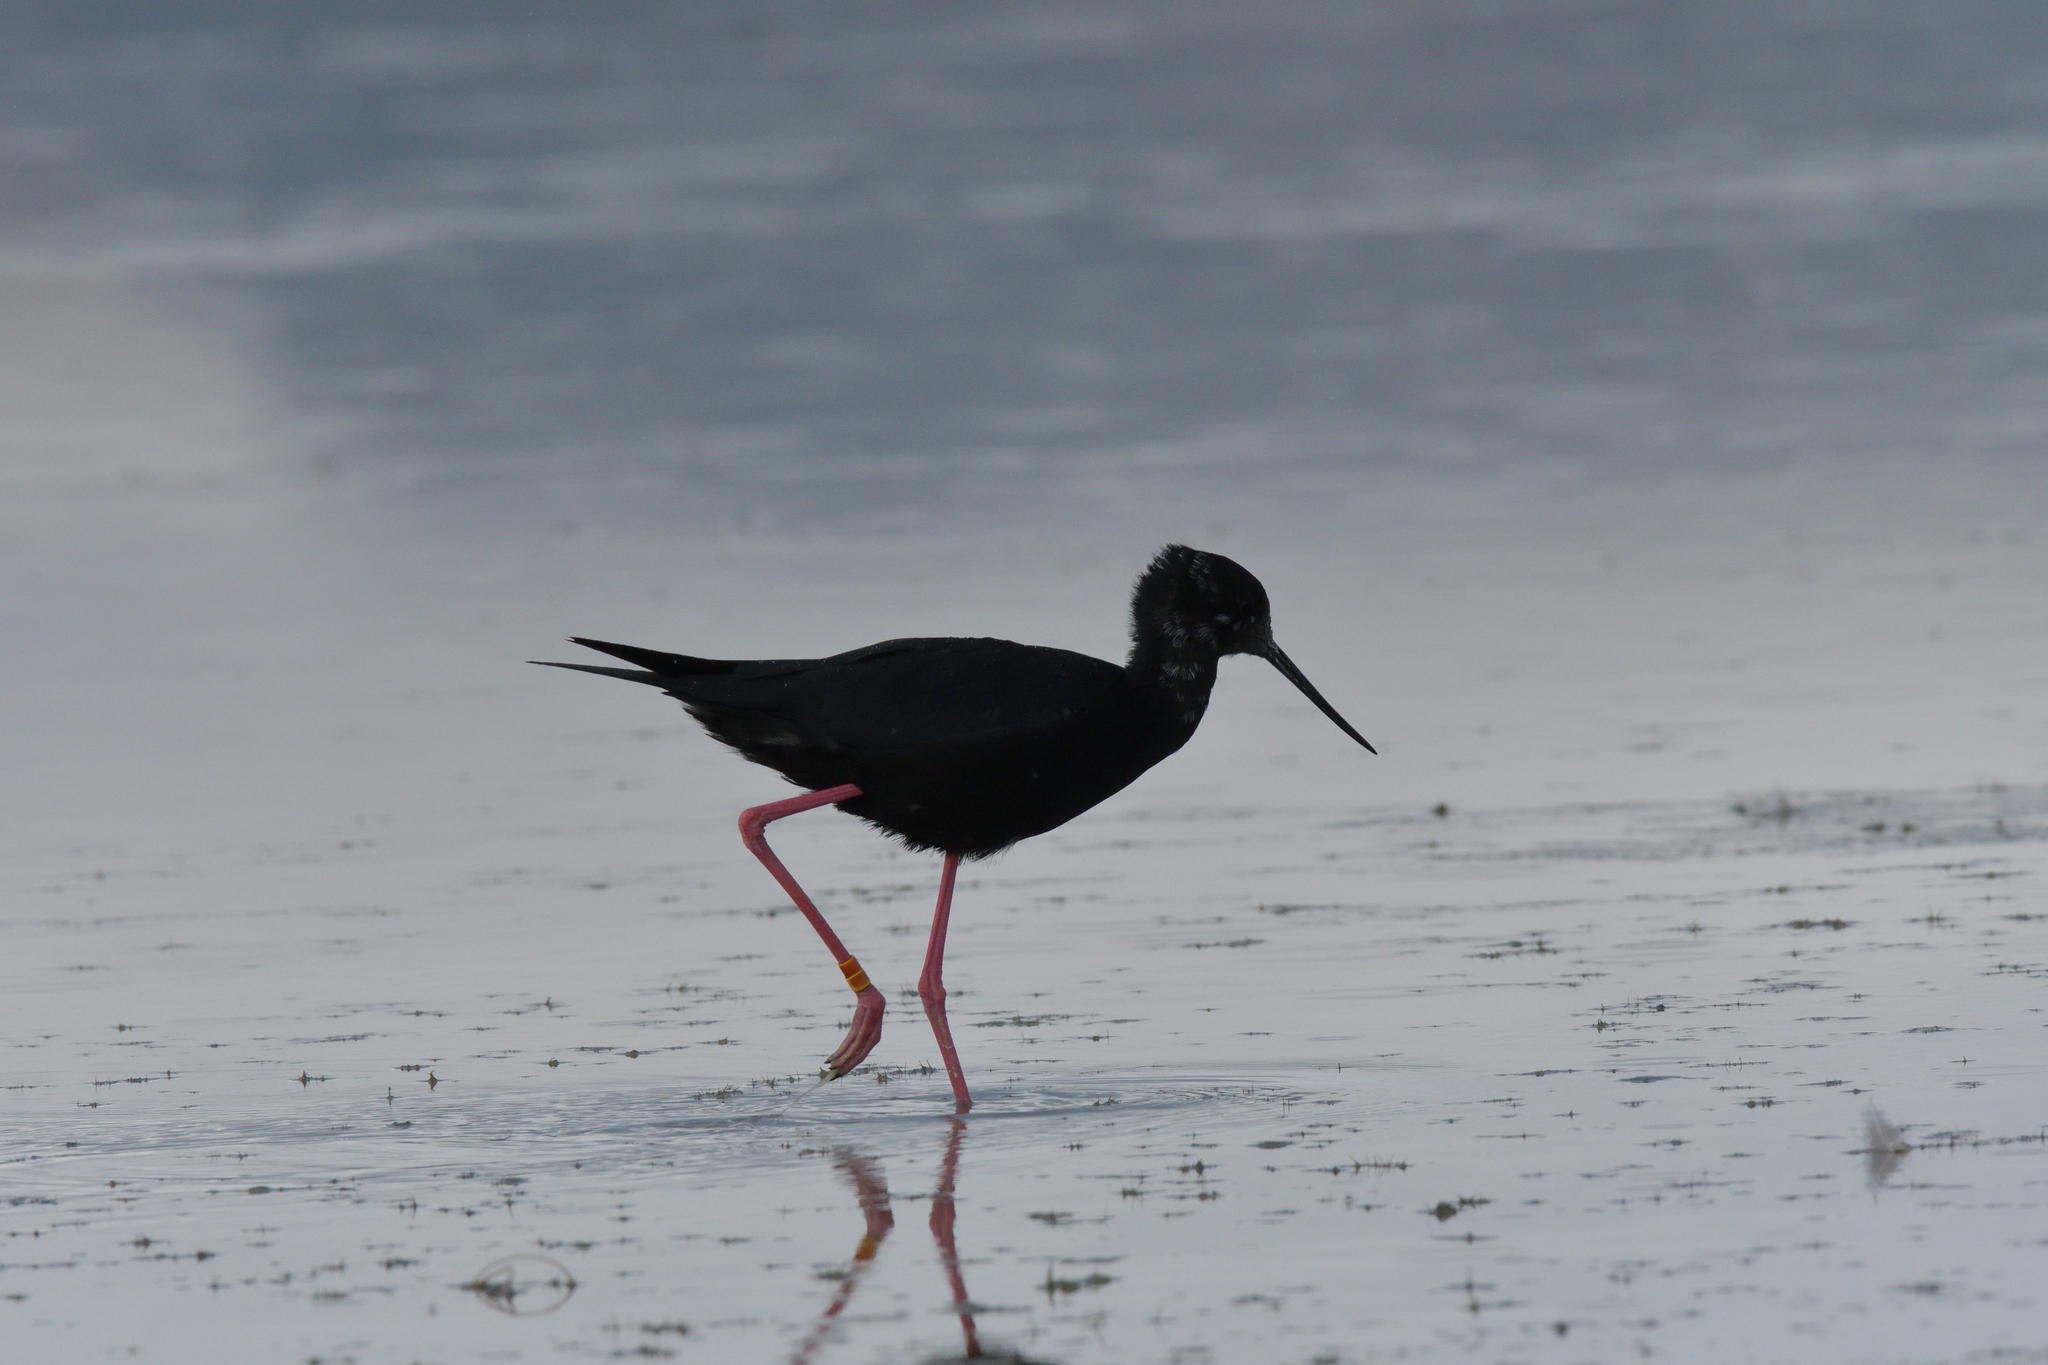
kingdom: Animalia
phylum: Chordata
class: Aves
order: Charadriiformes
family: Recurvirostridae
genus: Himantopus
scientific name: Himantopus novaezelandiae
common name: Black stilt
